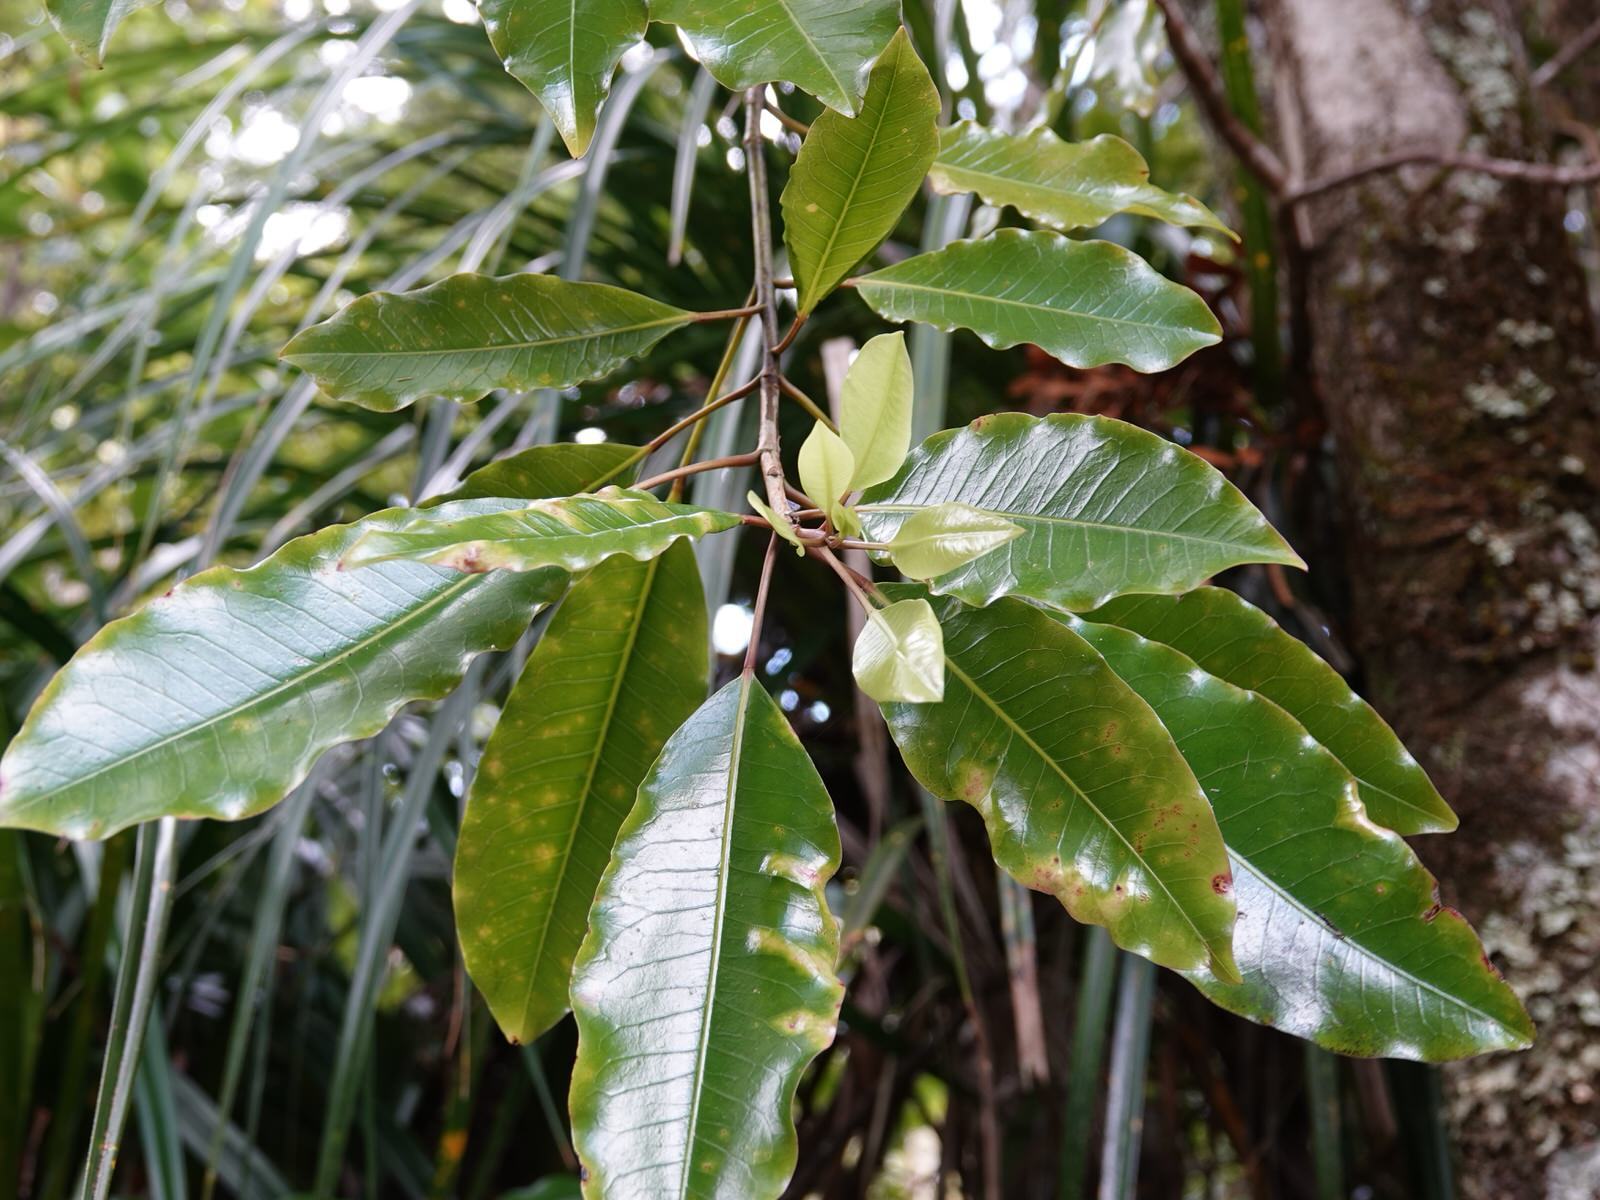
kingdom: Plantae
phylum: Tracheophyta
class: Magnoliopsida
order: Apiales
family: Araliaceae
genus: Raukaua
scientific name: Raukaua edgerleyi
